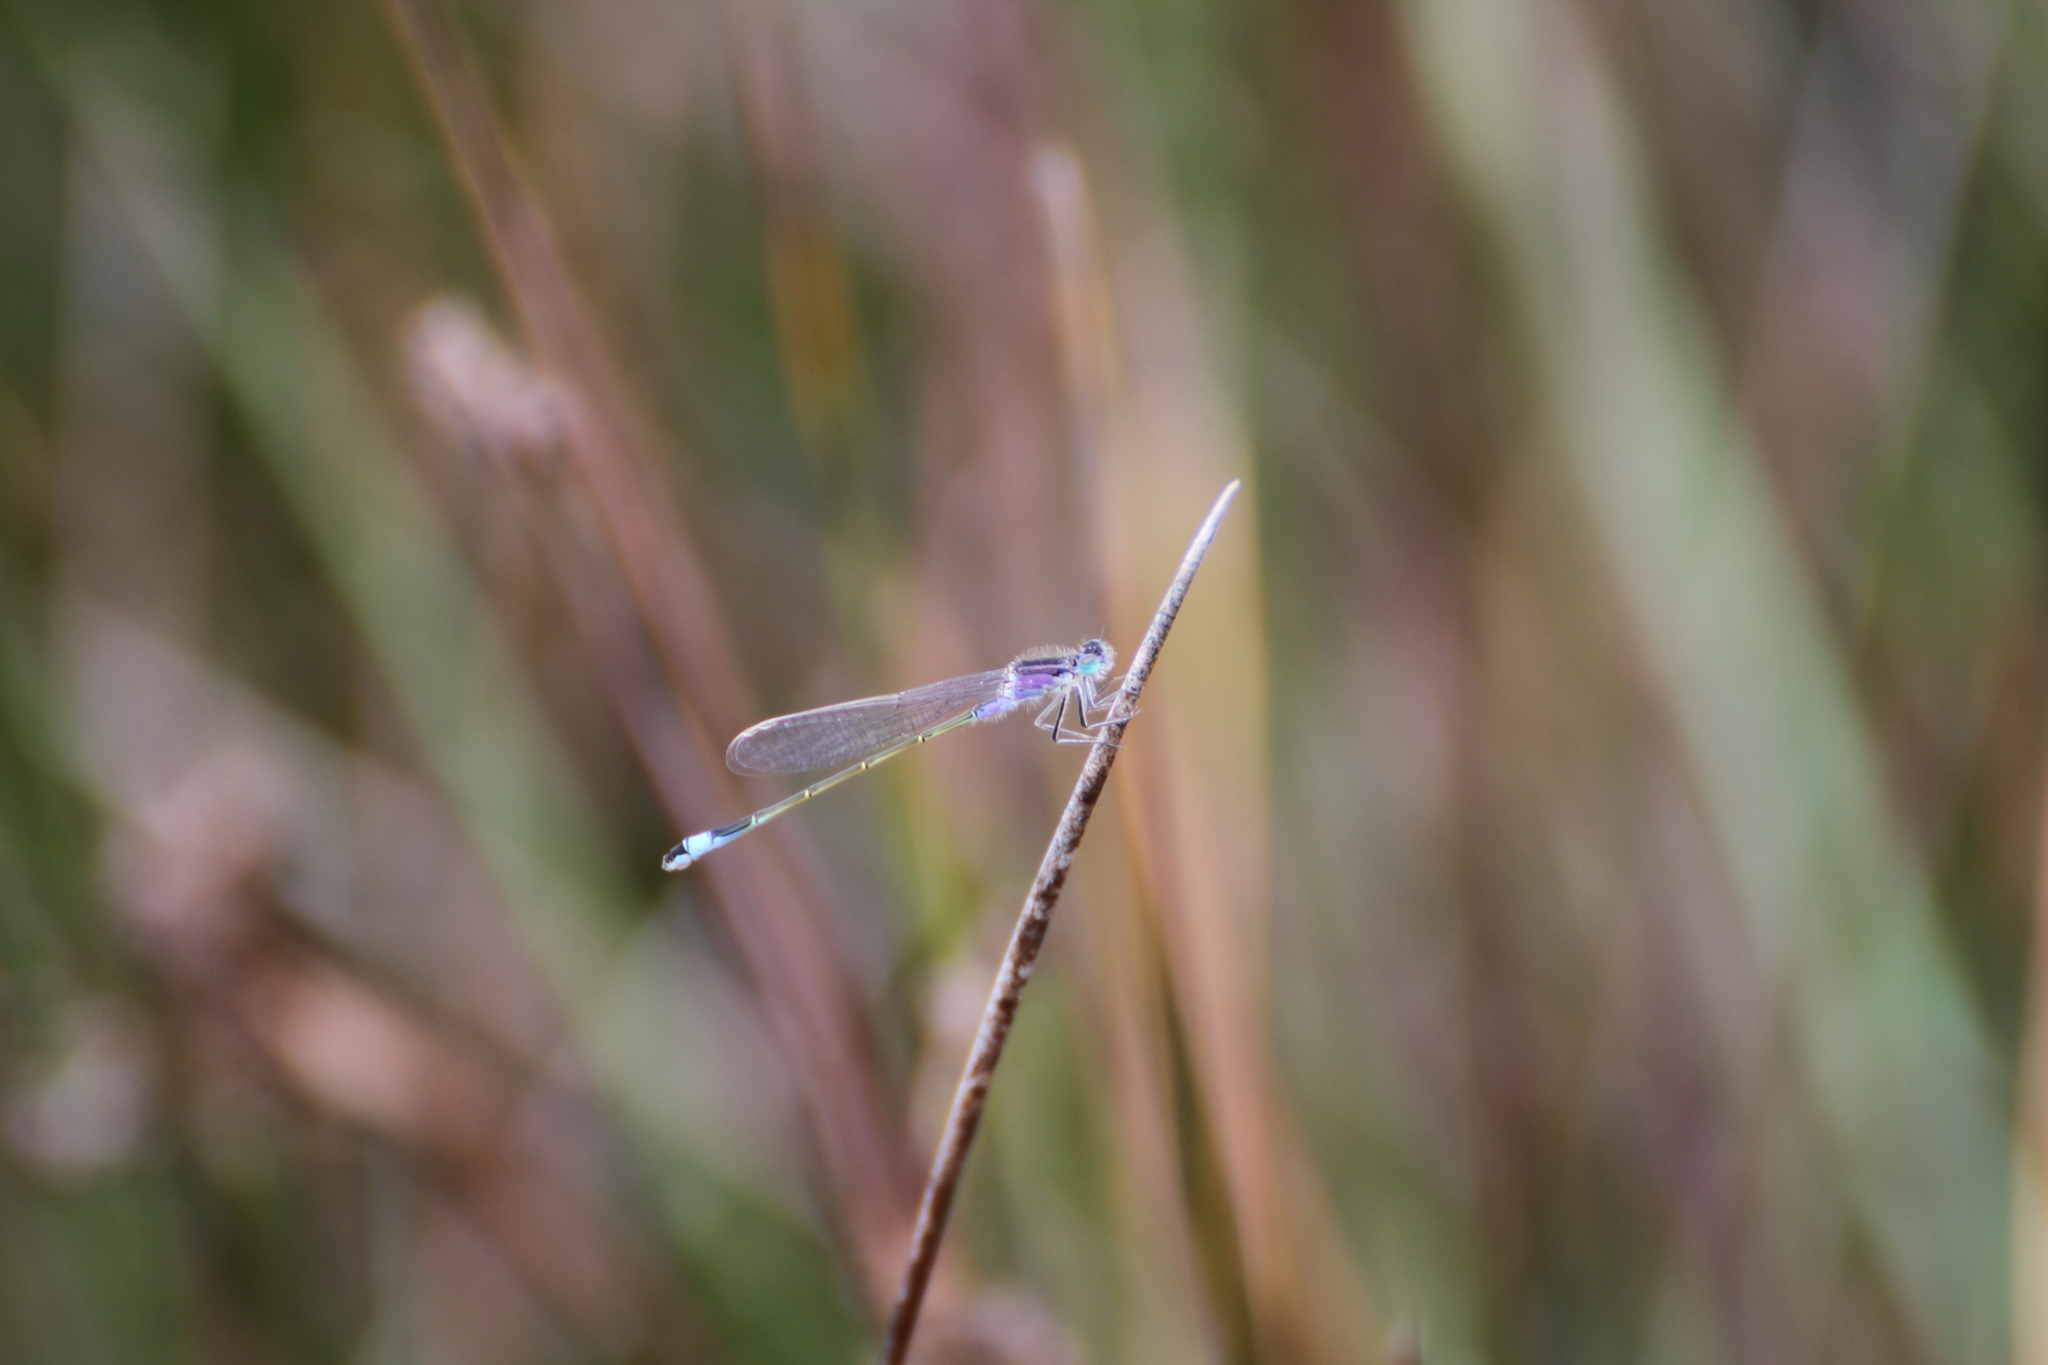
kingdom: Animalia
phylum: Arthropoda
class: Insecta
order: Odonata
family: Coenagrionidae
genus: Ischnura
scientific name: Ischnura elegans
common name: Blue-tailed damselfly
